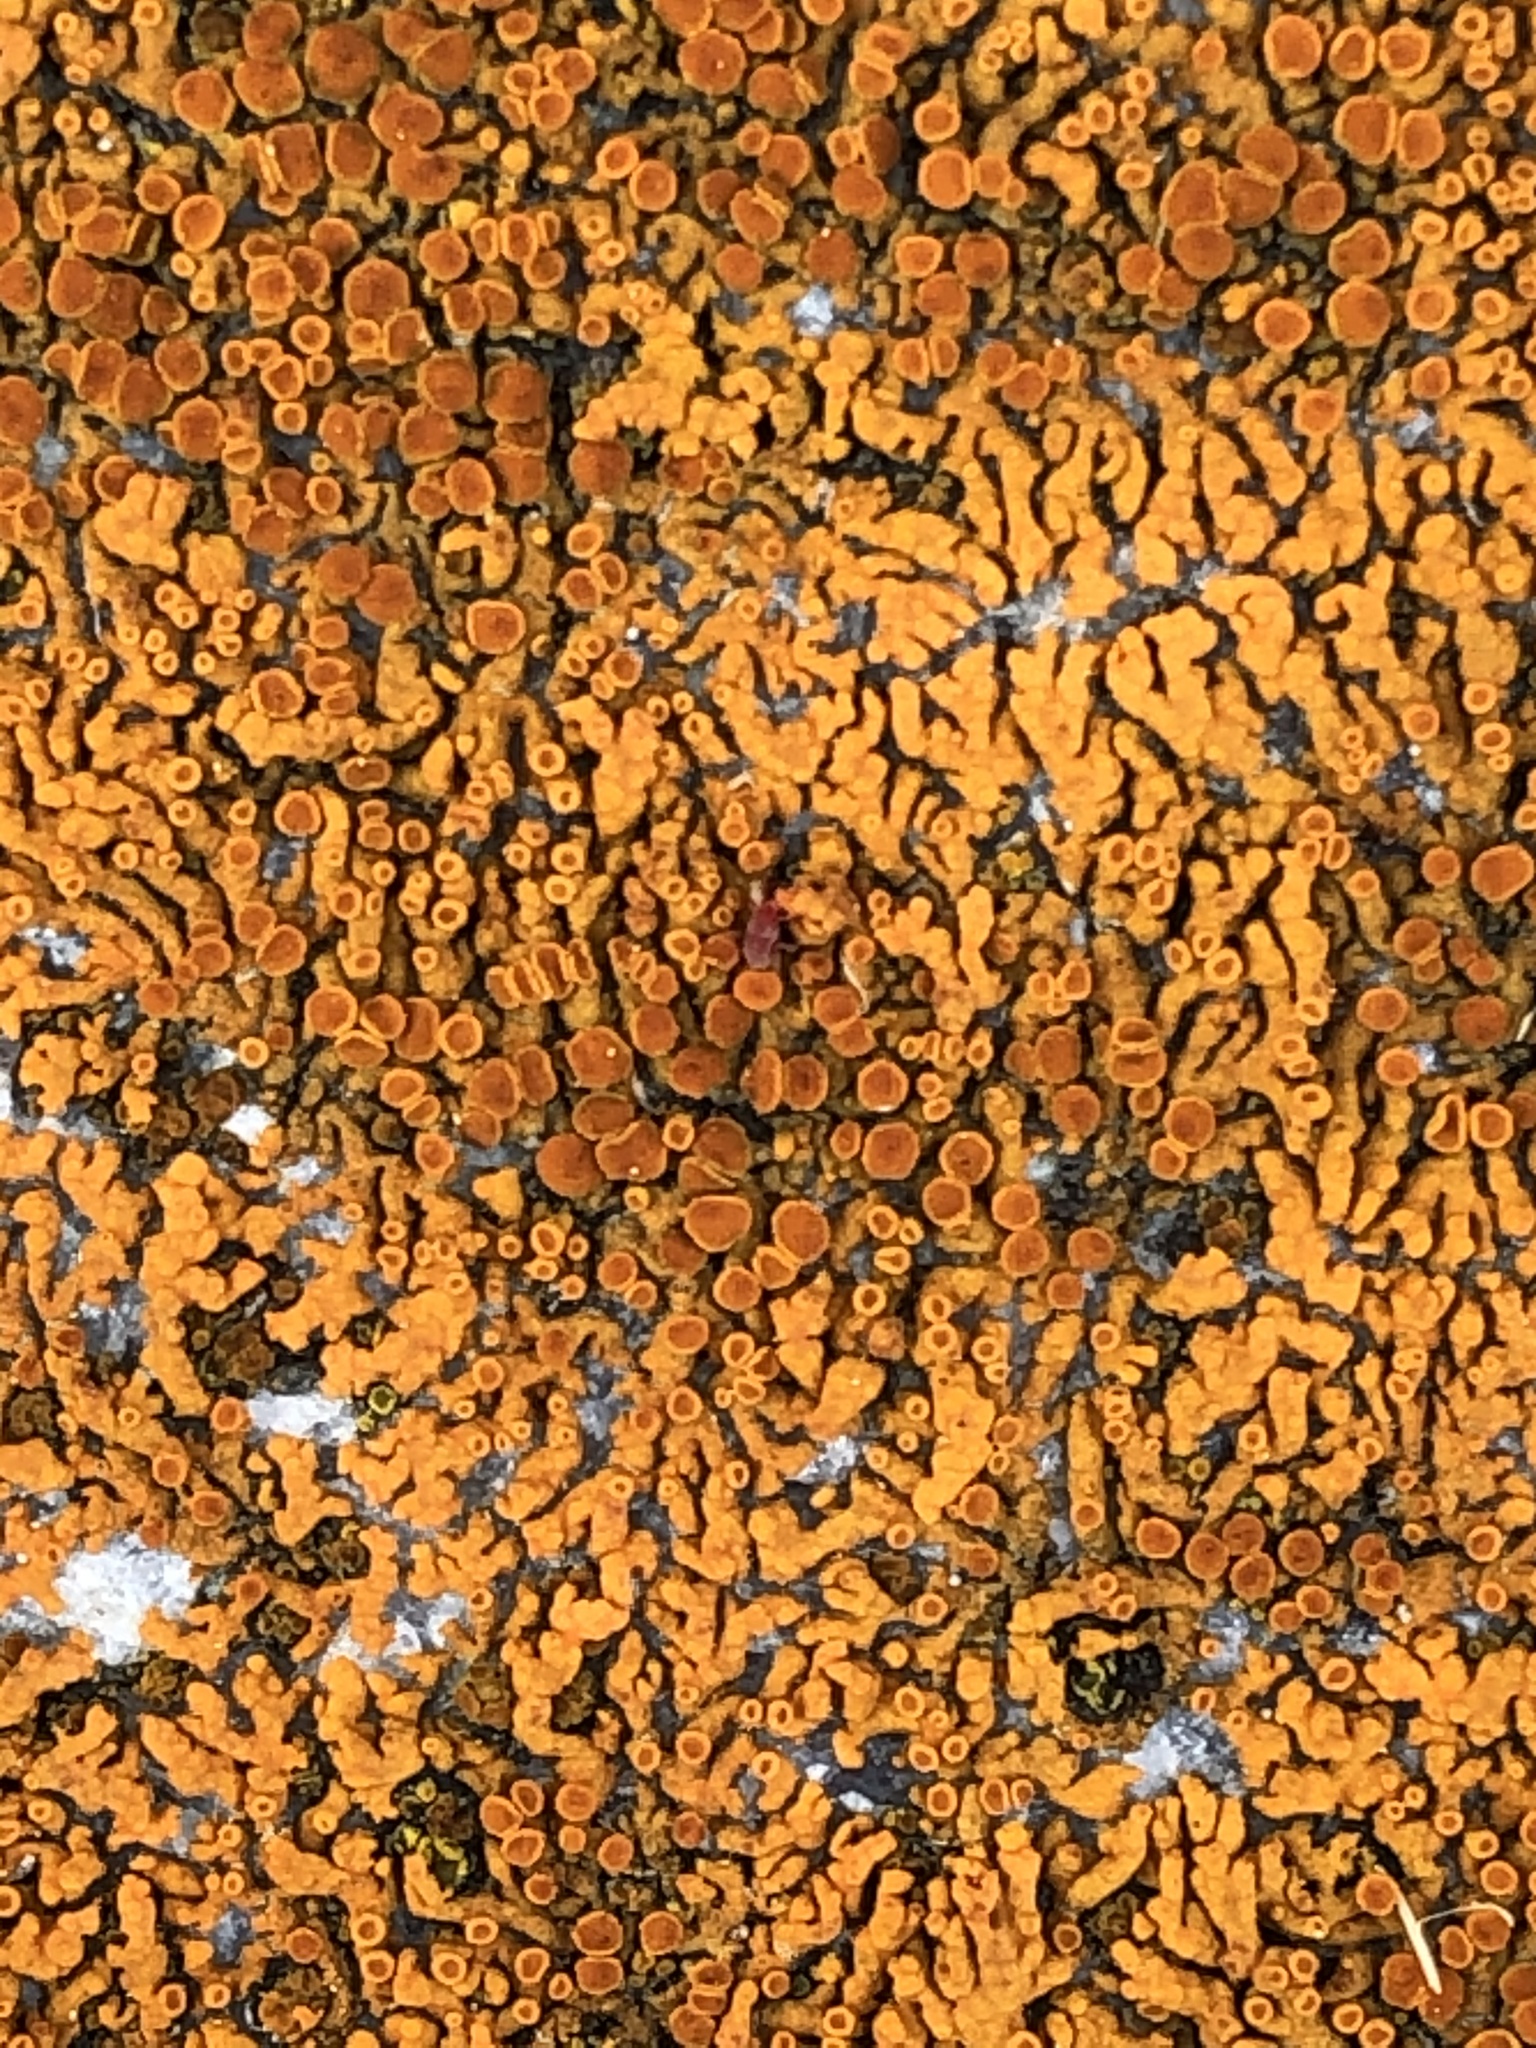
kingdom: Fungi
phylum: Ascomycota
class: Lecanoromycetes
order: Teloschistales
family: Teloschistaceae
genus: Xanthoria
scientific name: Xanthoria elegans
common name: Elegant sunburst lichen
